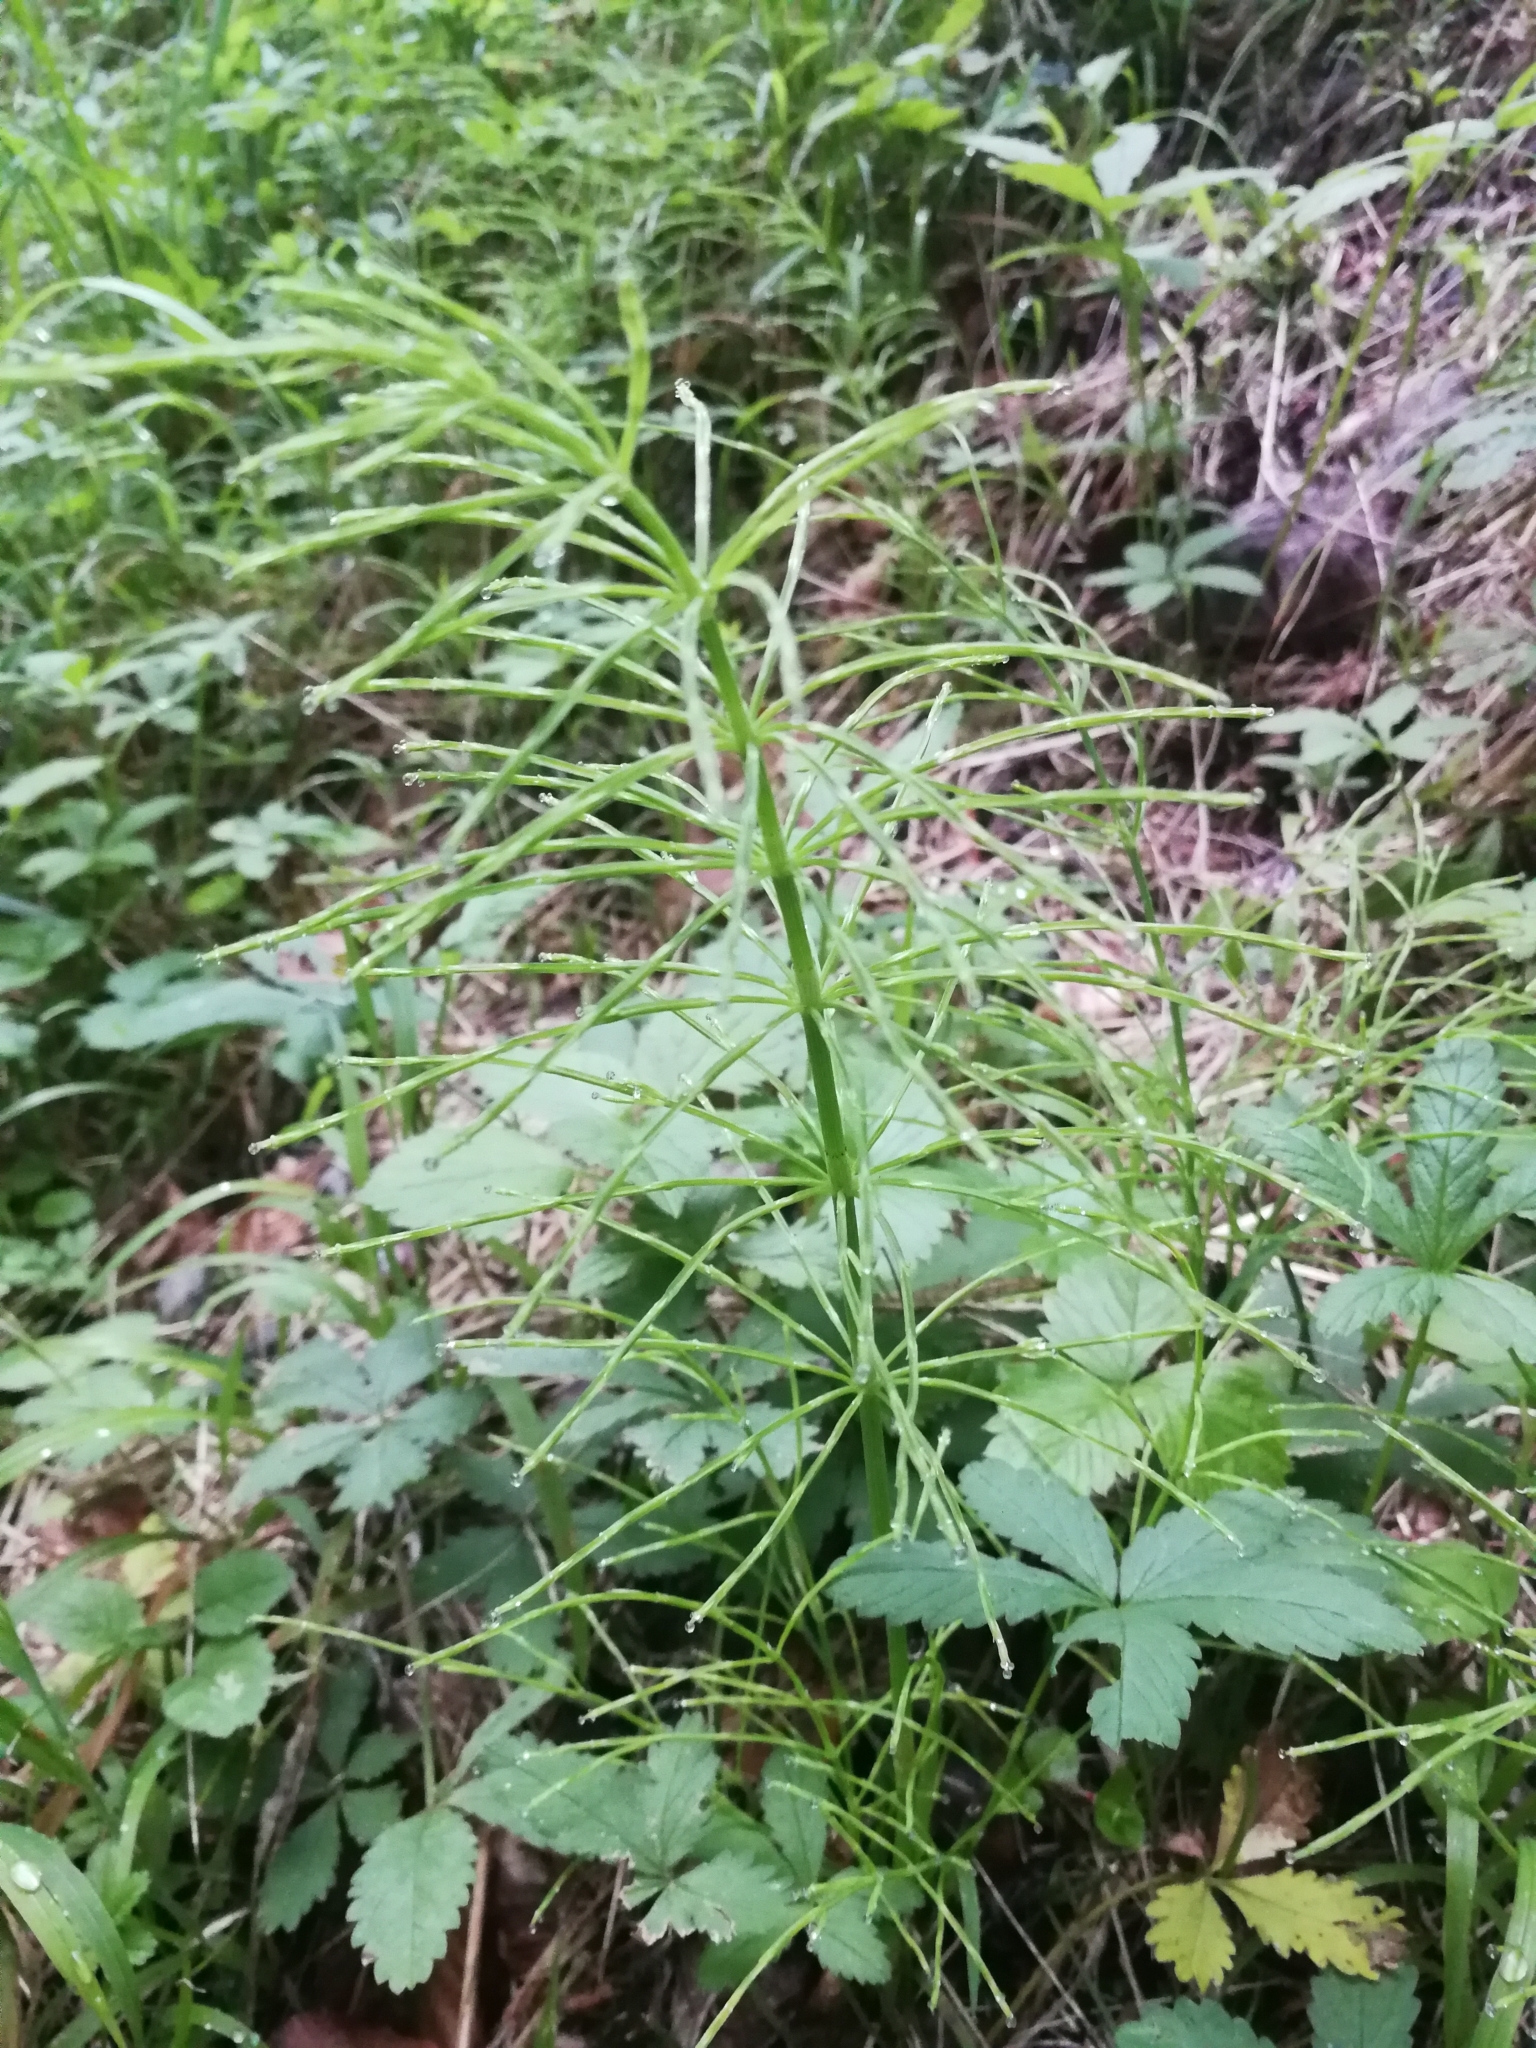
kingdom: Plantae
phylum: Tracheophyta
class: Polypodiopsida
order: Equisetales
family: Equisetaceae
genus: Equisetum
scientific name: Equisetum arvense
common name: Field horsetail
